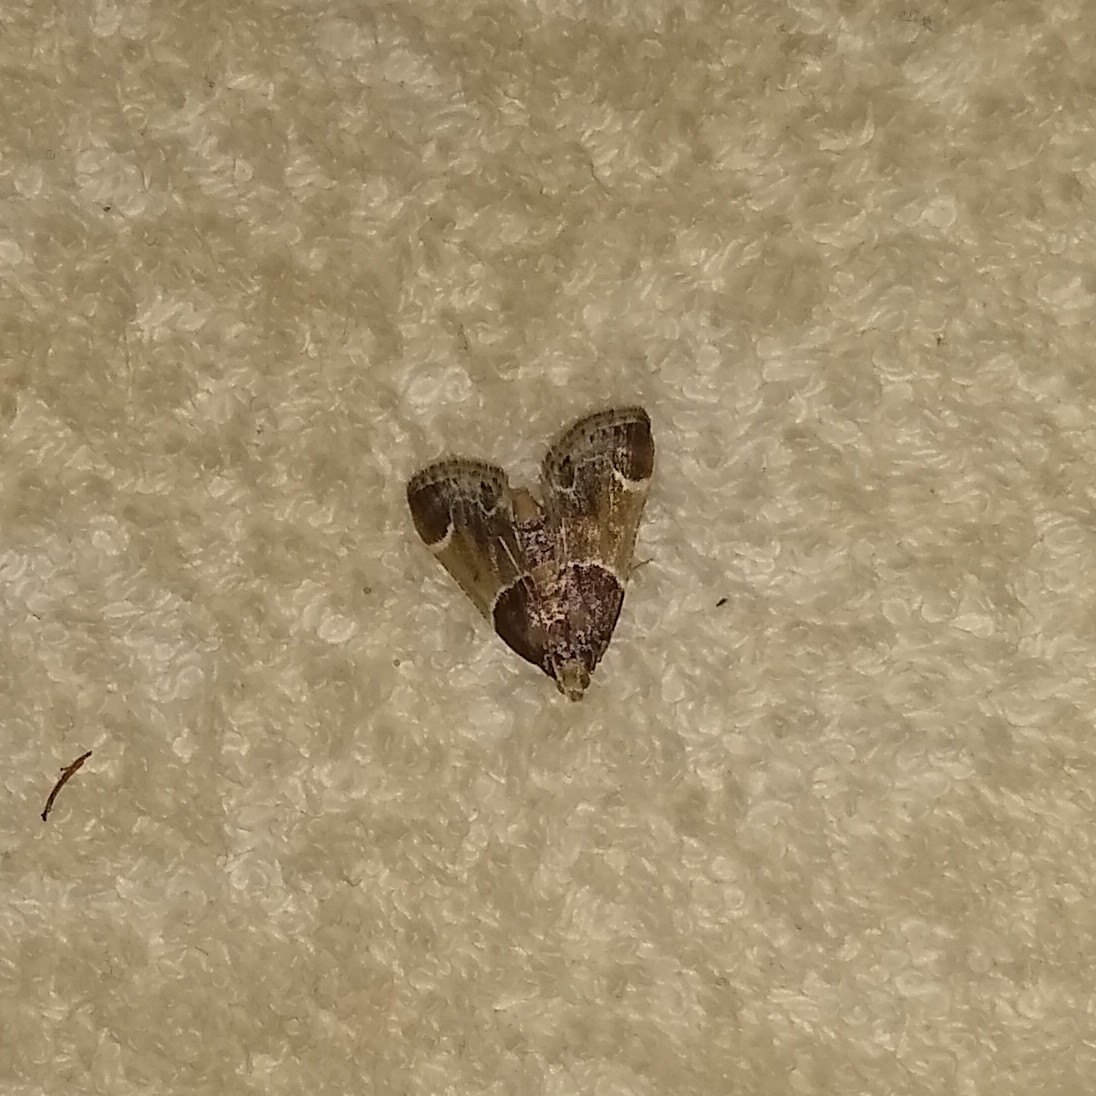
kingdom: Animalia
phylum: Arthropoda
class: Insecta
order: Lepidoptera
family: Pyralidae
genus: Pyralis
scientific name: Pyralis farinalis
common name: Meal moth
